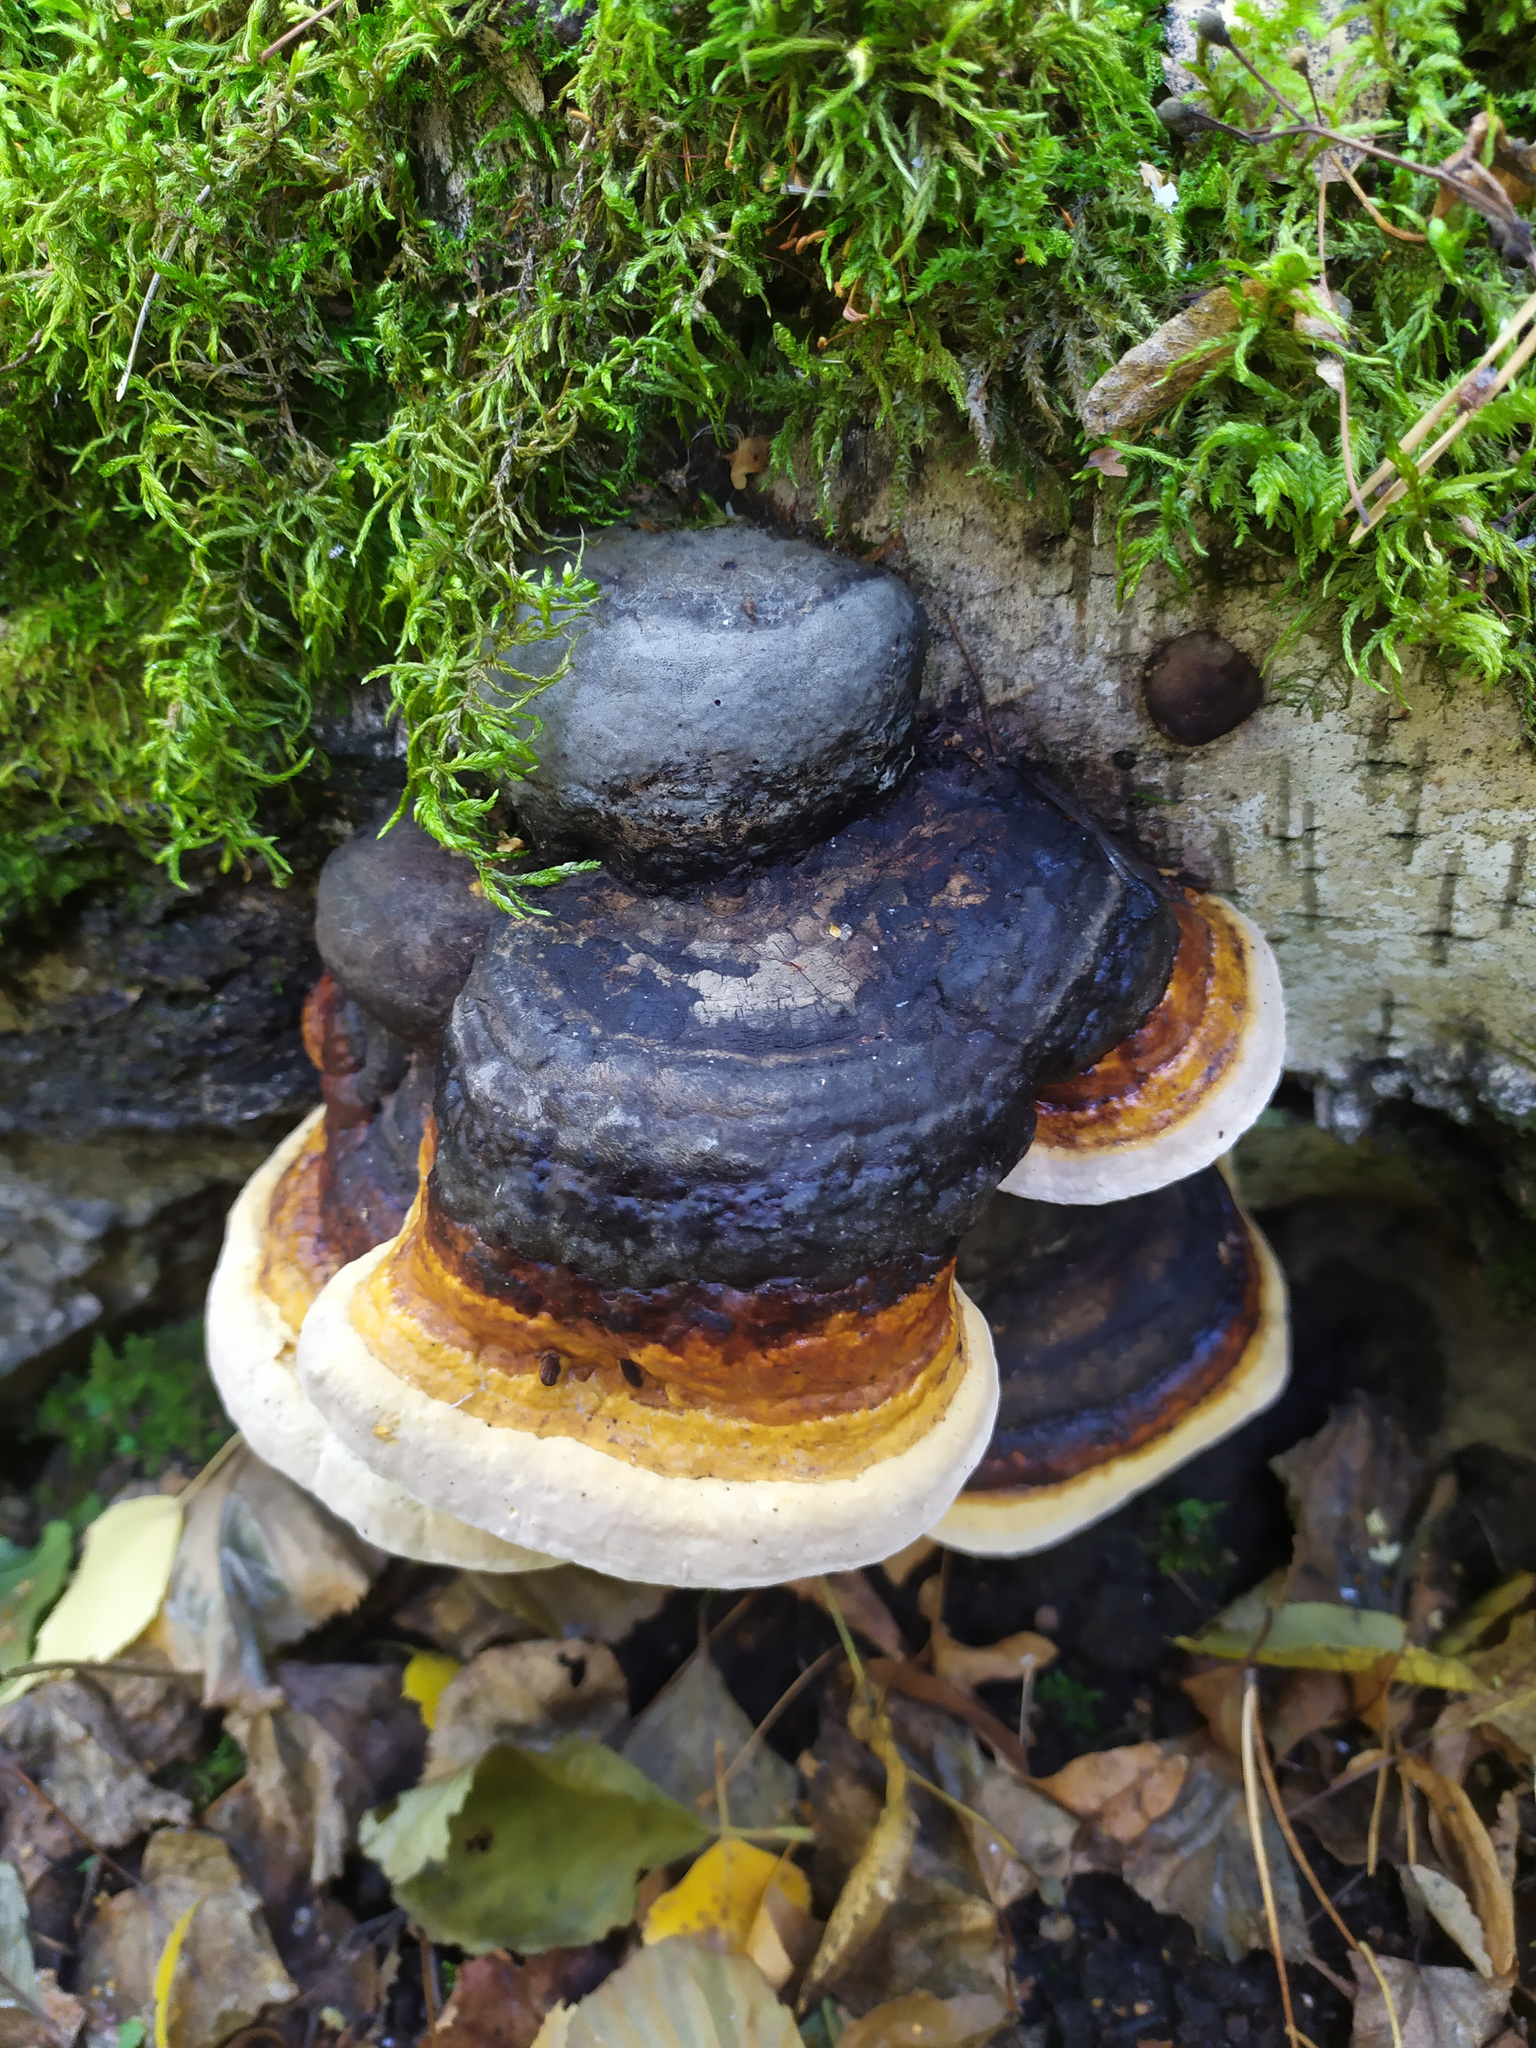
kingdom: Fungi
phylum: Basidiomycota
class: Agaricomycetes
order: Polyporales
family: Fomitopsidaceae
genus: Fomitopsis
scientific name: Fomitopsis pinicola
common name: Red-belted bracket
